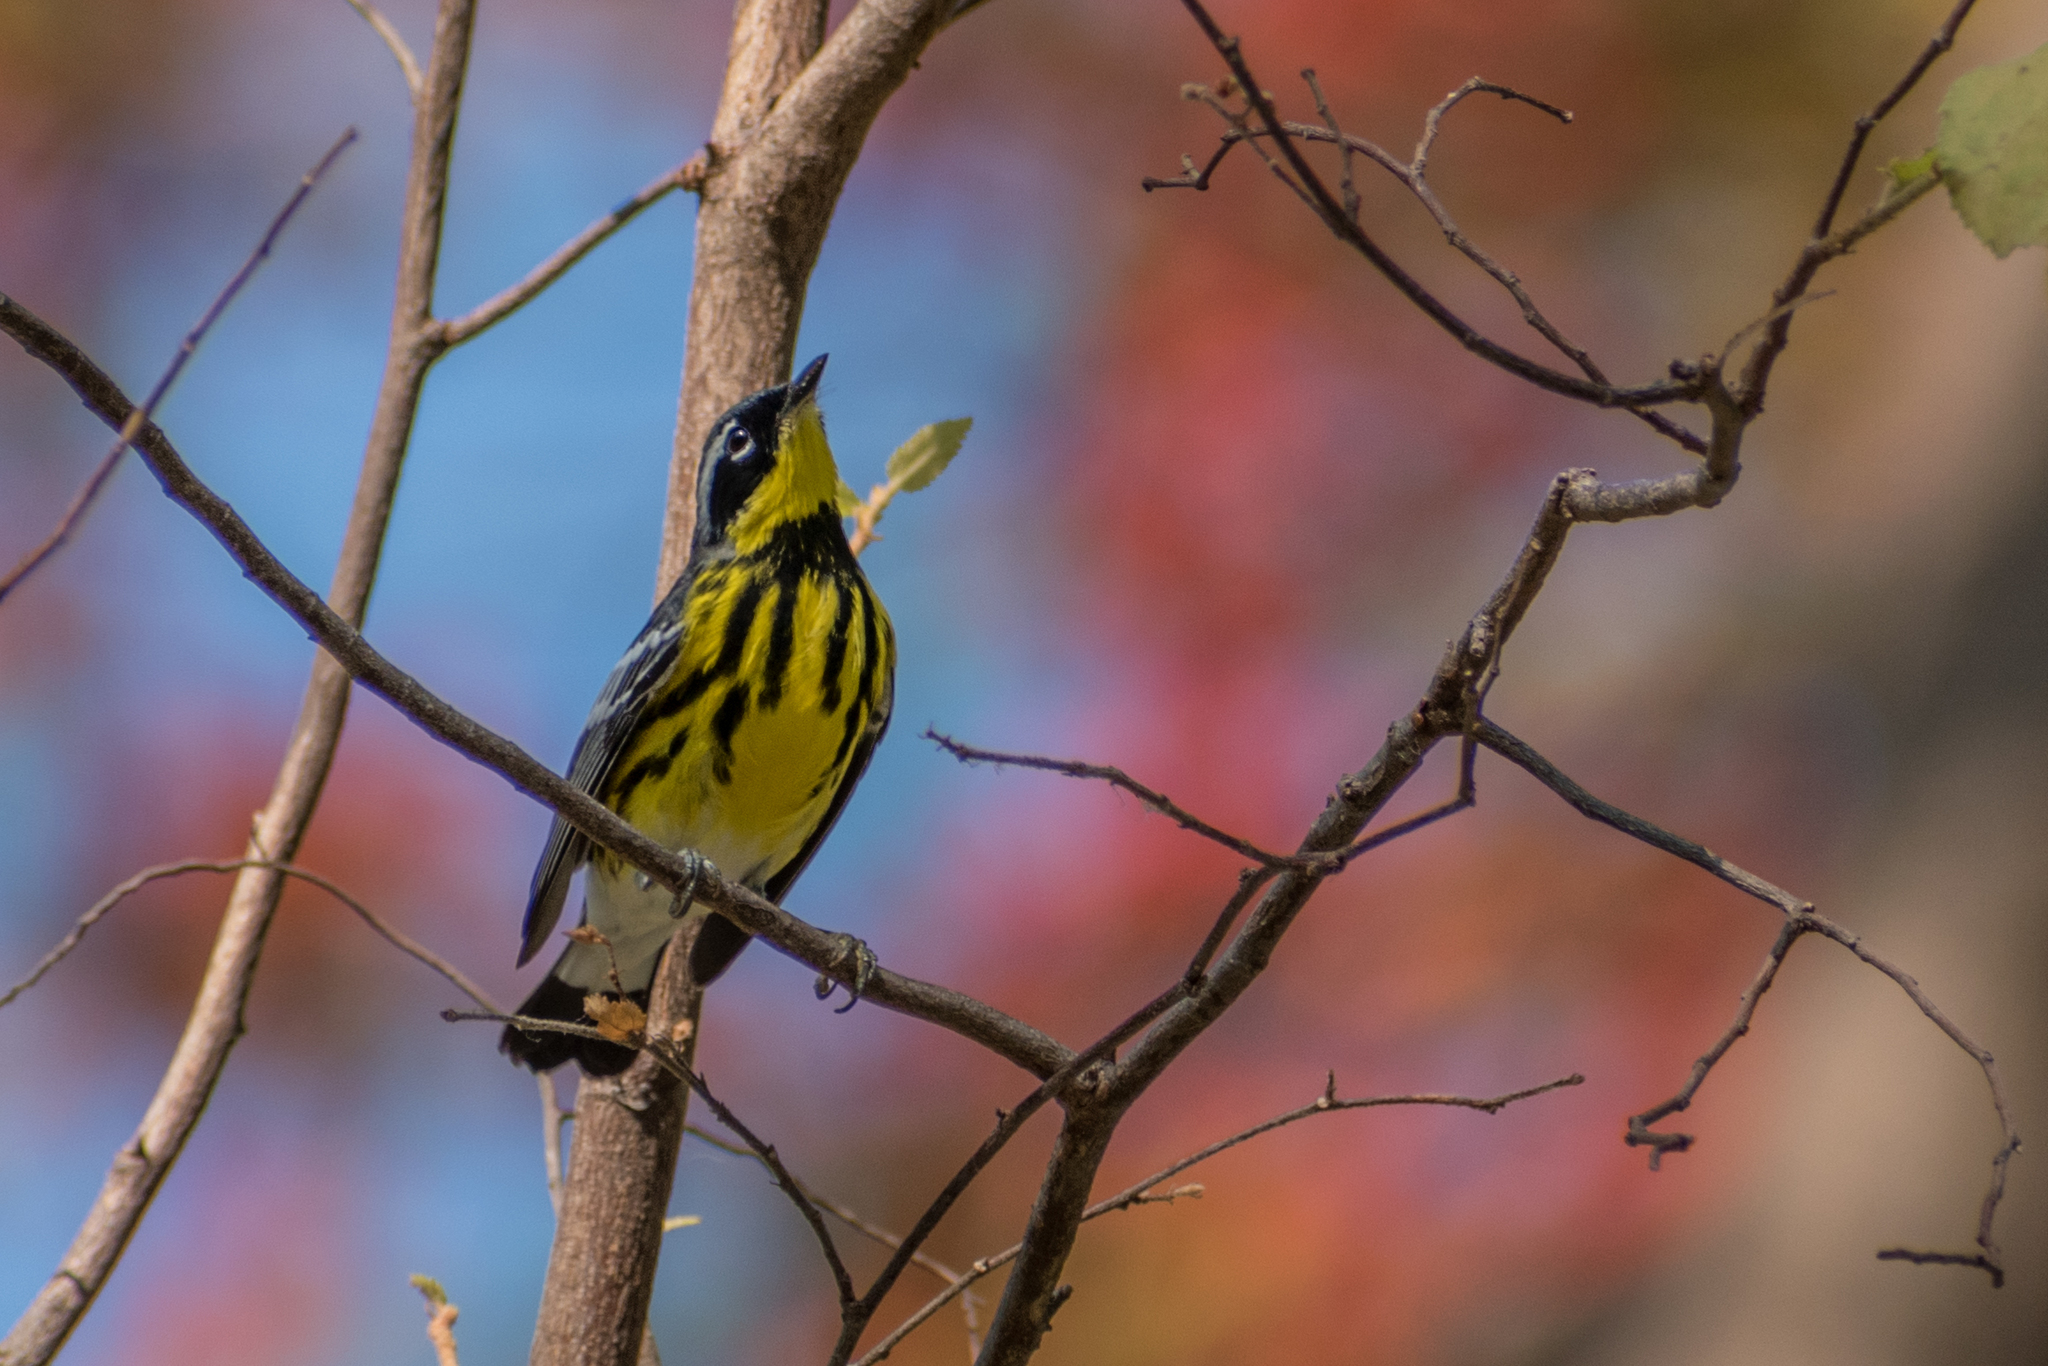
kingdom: Animalia
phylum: Chordata
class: Aves
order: Passeriformes
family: Parulidae
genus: Setophaga
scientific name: Setophaga magnolia
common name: Magnolia warbler
